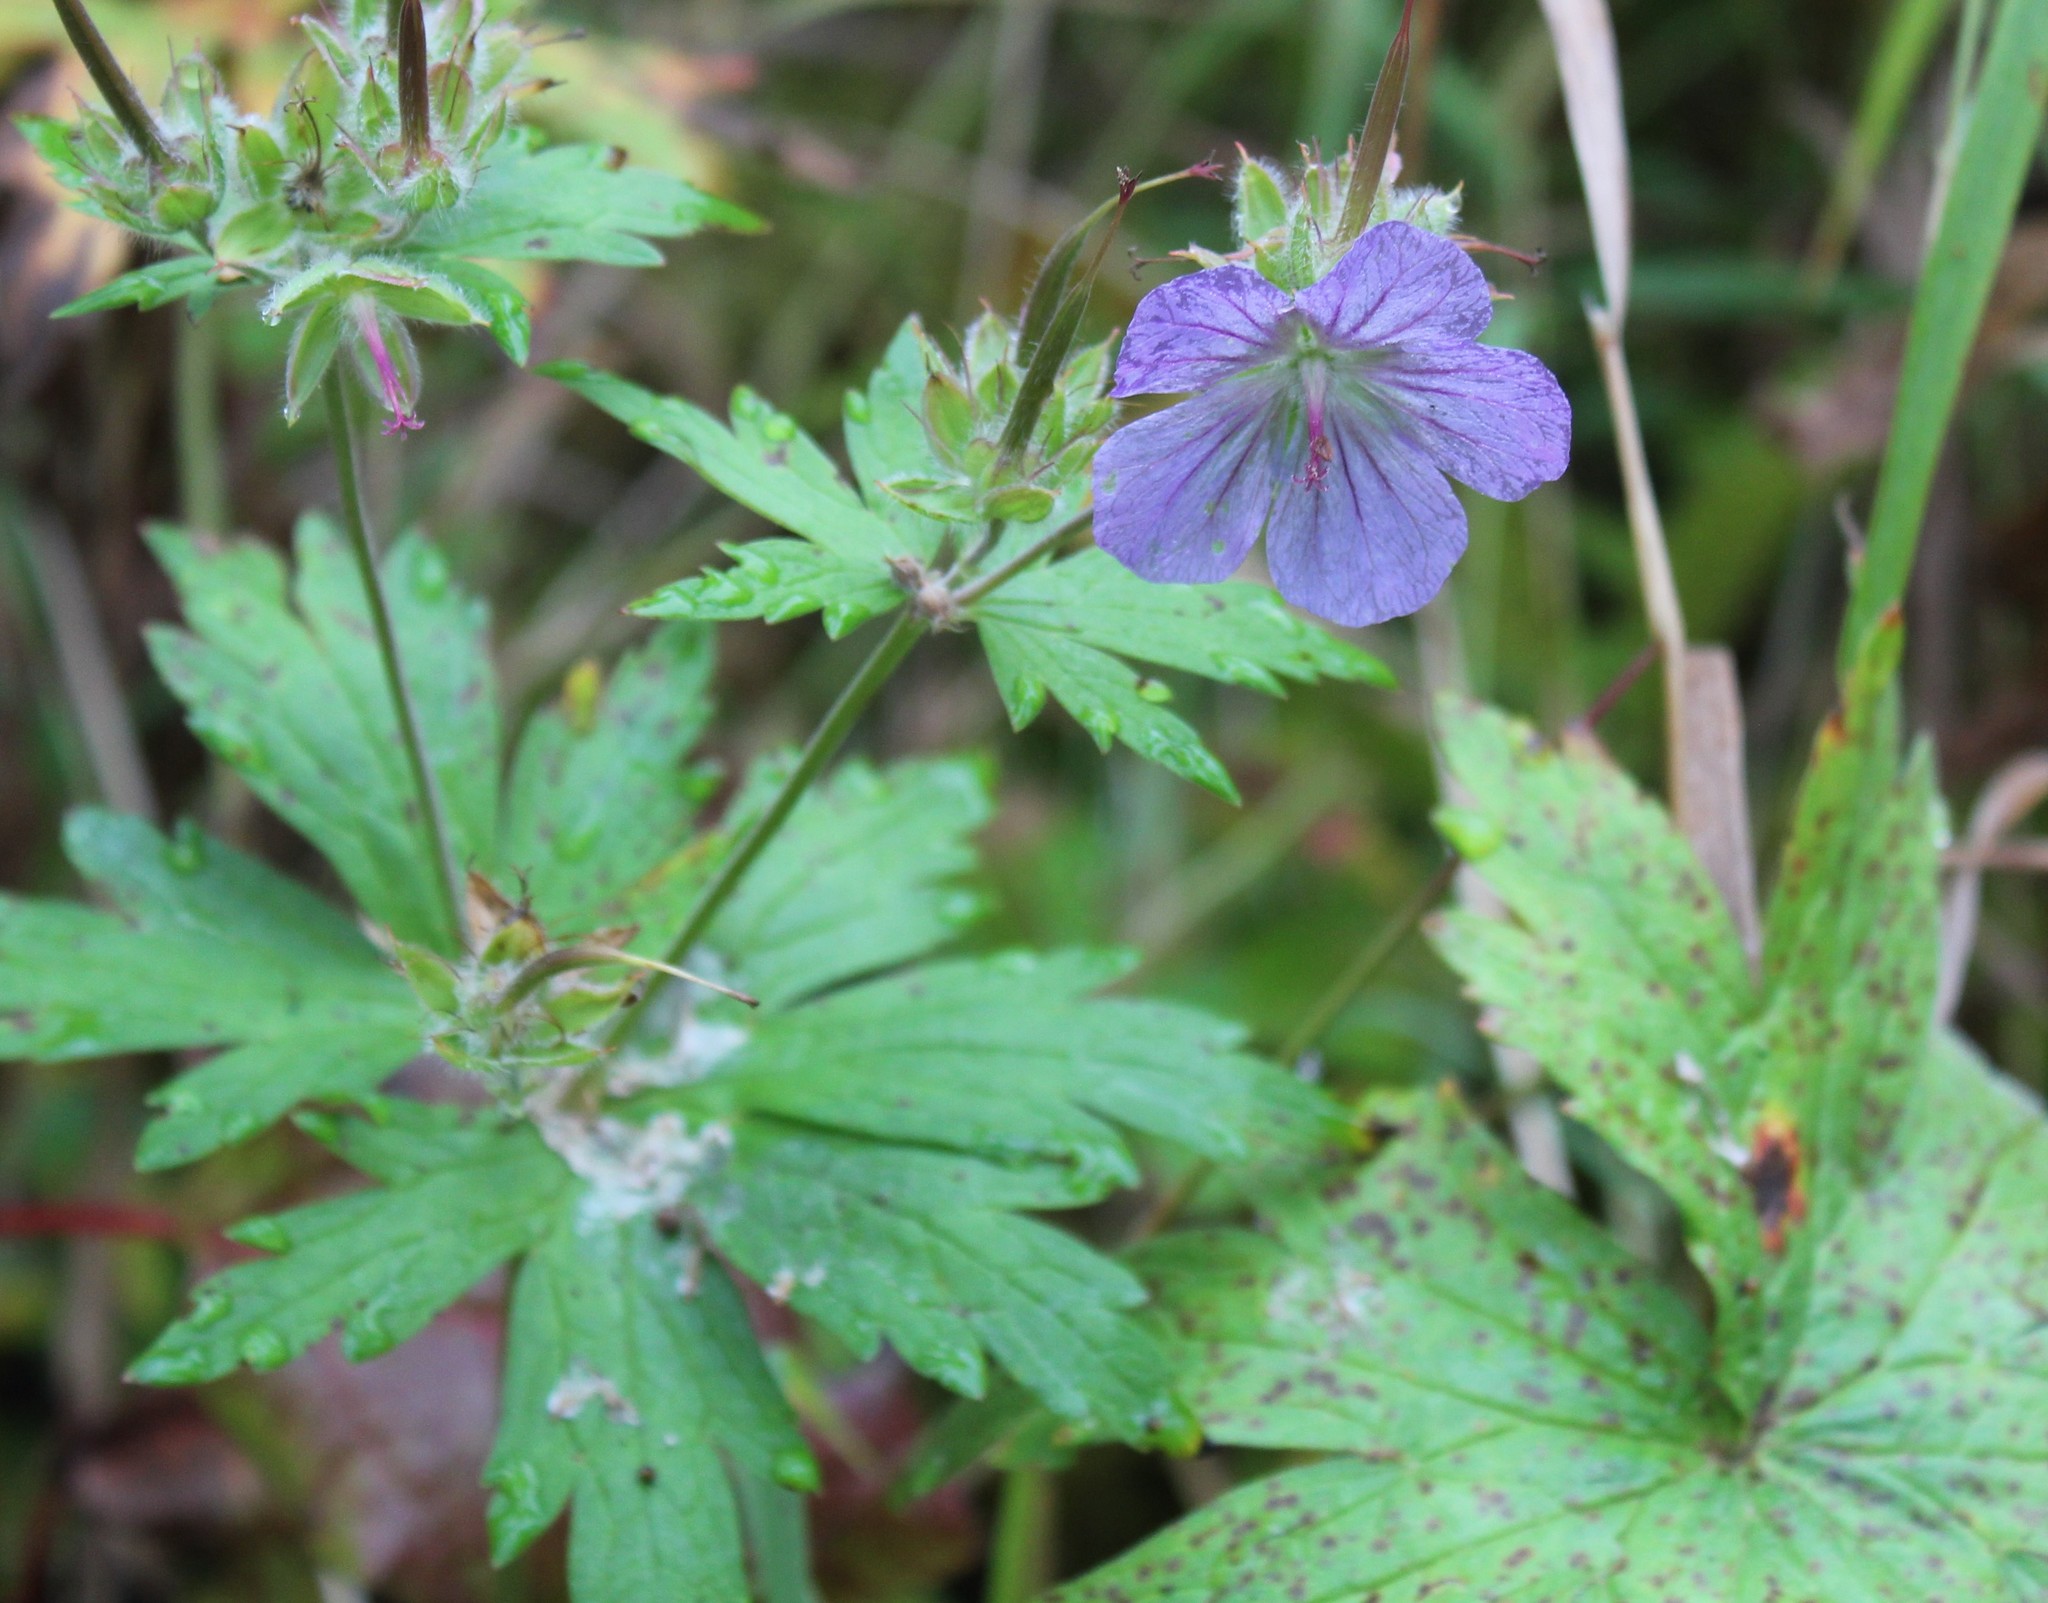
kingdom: Plantae
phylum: Tracheophyta
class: Magnoliopsida
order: Geraniales
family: Geraniaceae
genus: Geranium
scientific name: Geranium erianthum
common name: Northern crane's-bill
